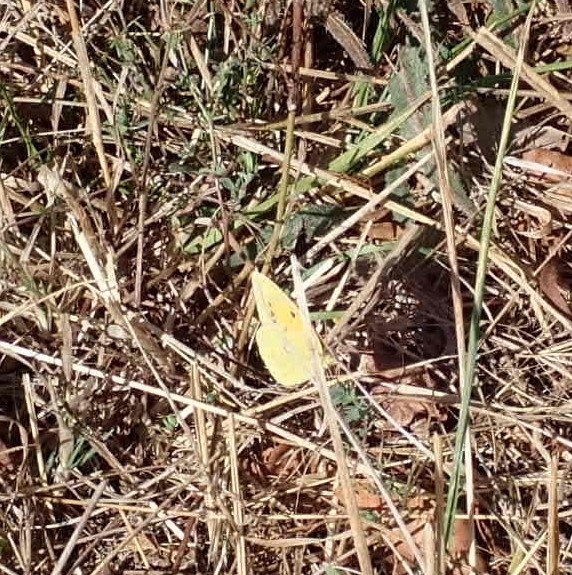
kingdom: Animalia
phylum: Arthropoda
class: Insecta
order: Lepidoptera
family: Pieridae
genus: Colias
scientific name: Colias croceus
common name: Clouded yellow
